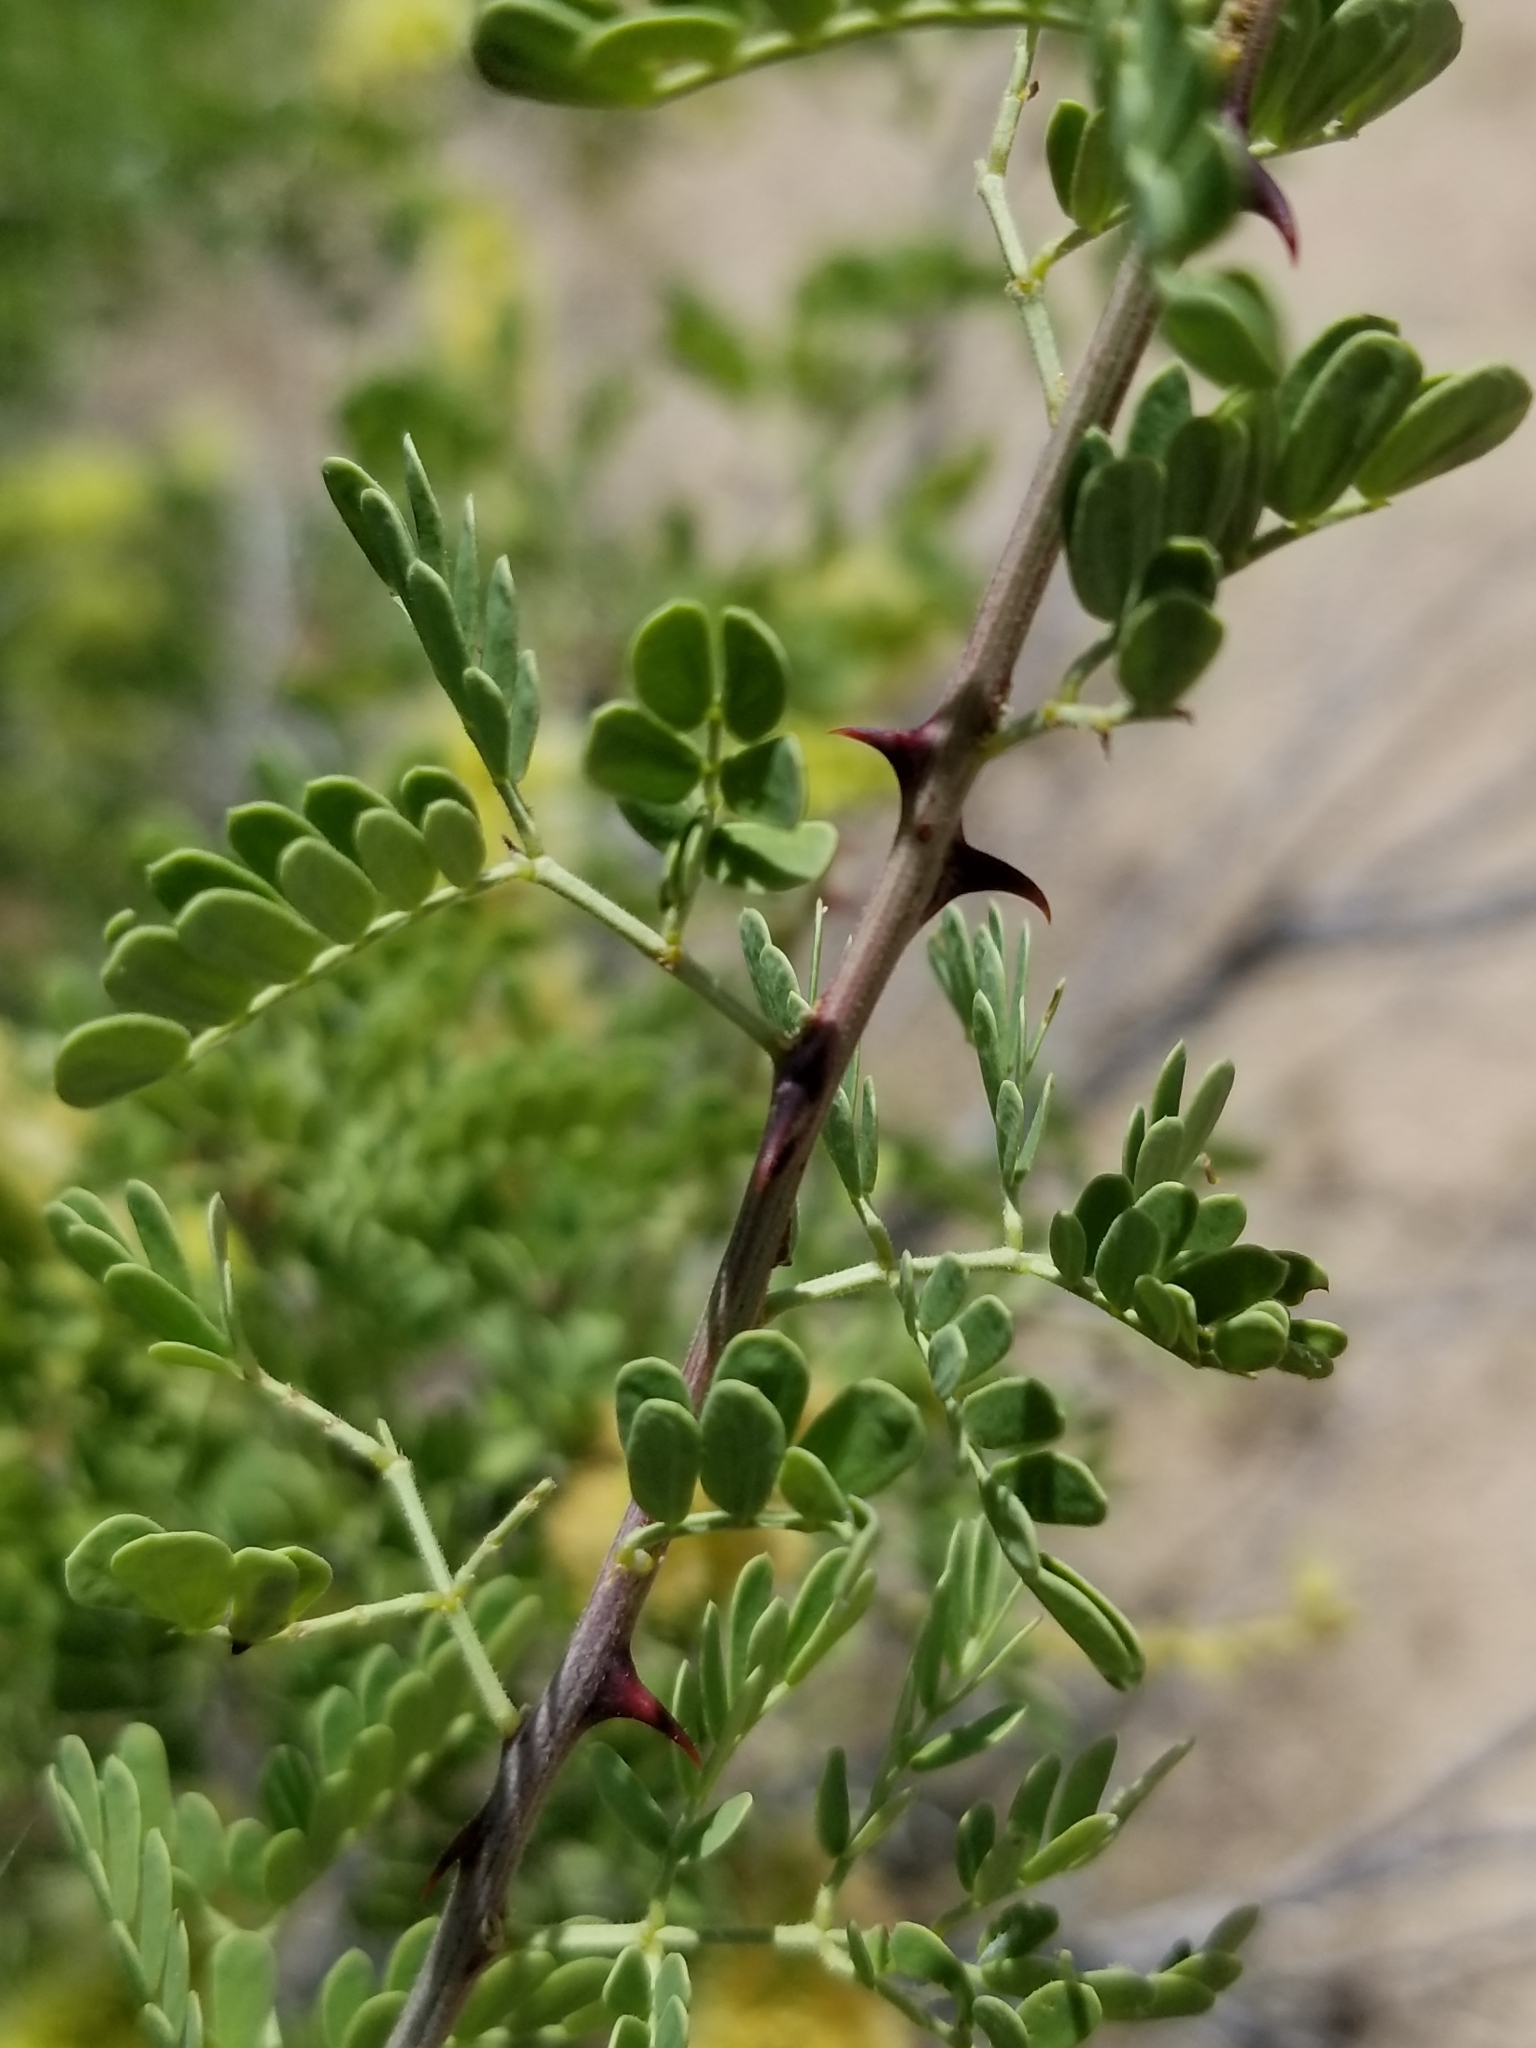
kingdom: Plantae
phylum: Tracheophyta
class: Magnoliopsida
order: Fabales
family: Fabaceae
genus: Senegalia
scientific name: Senegalia greggii
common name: Texas-mimosa
